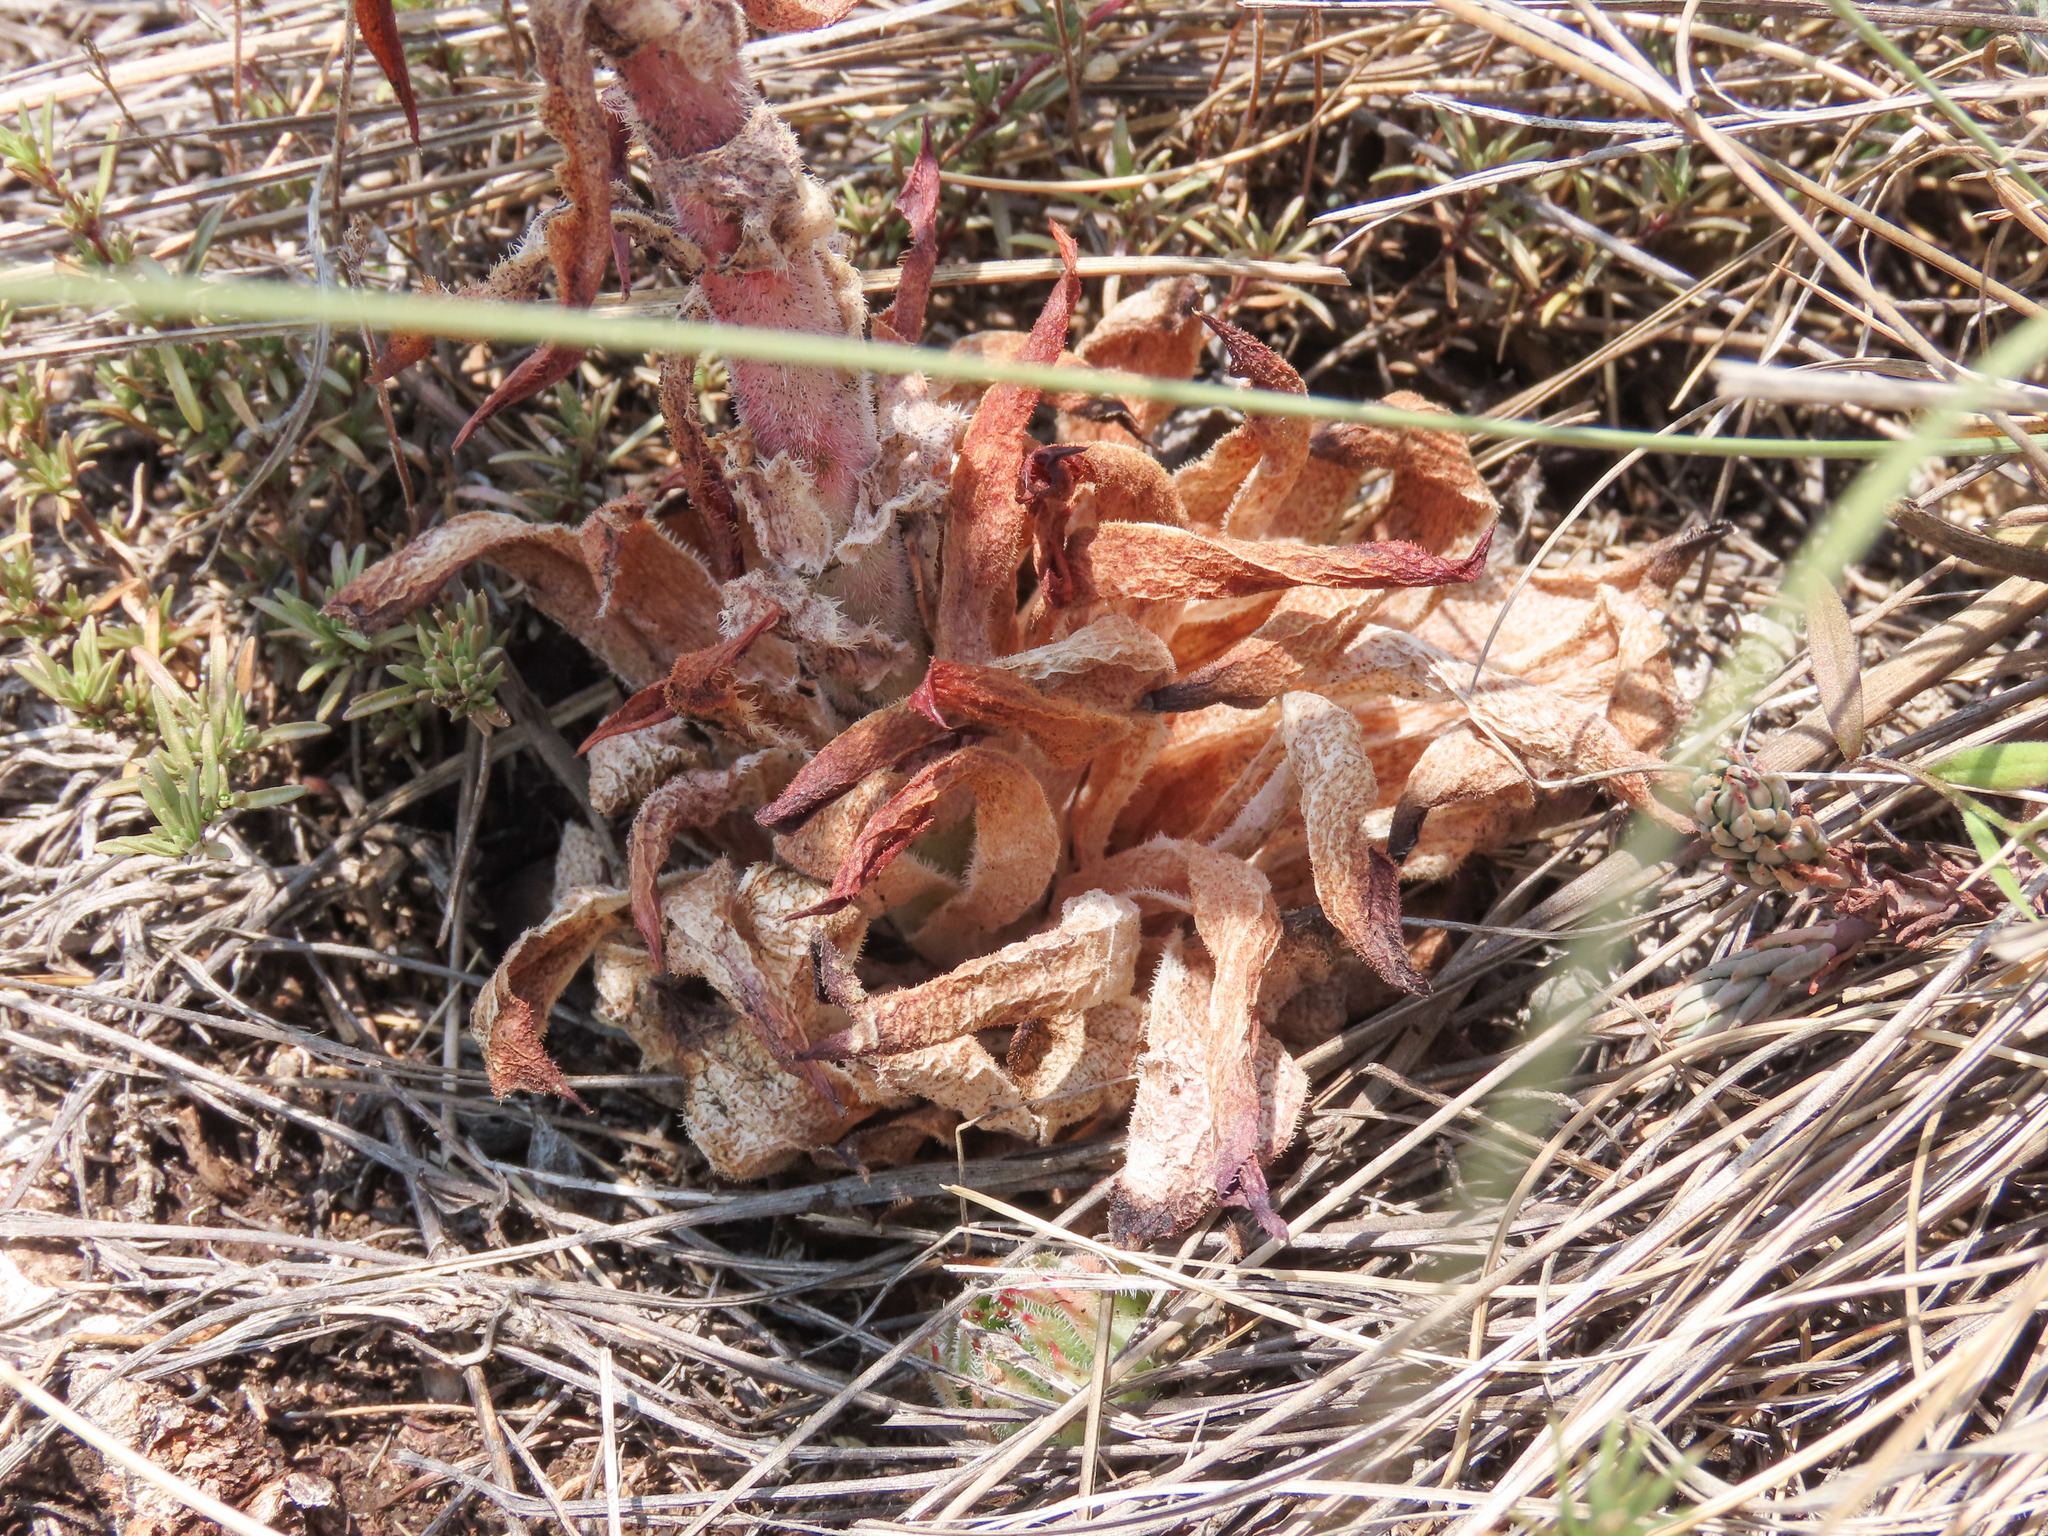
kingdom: Plantae
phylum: Tracheophyta
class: Magnoliopsida
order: Saxifragales
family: Crassulaceae
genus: Sempervivum
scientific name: Sempervivum tectorum
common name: House-leek
